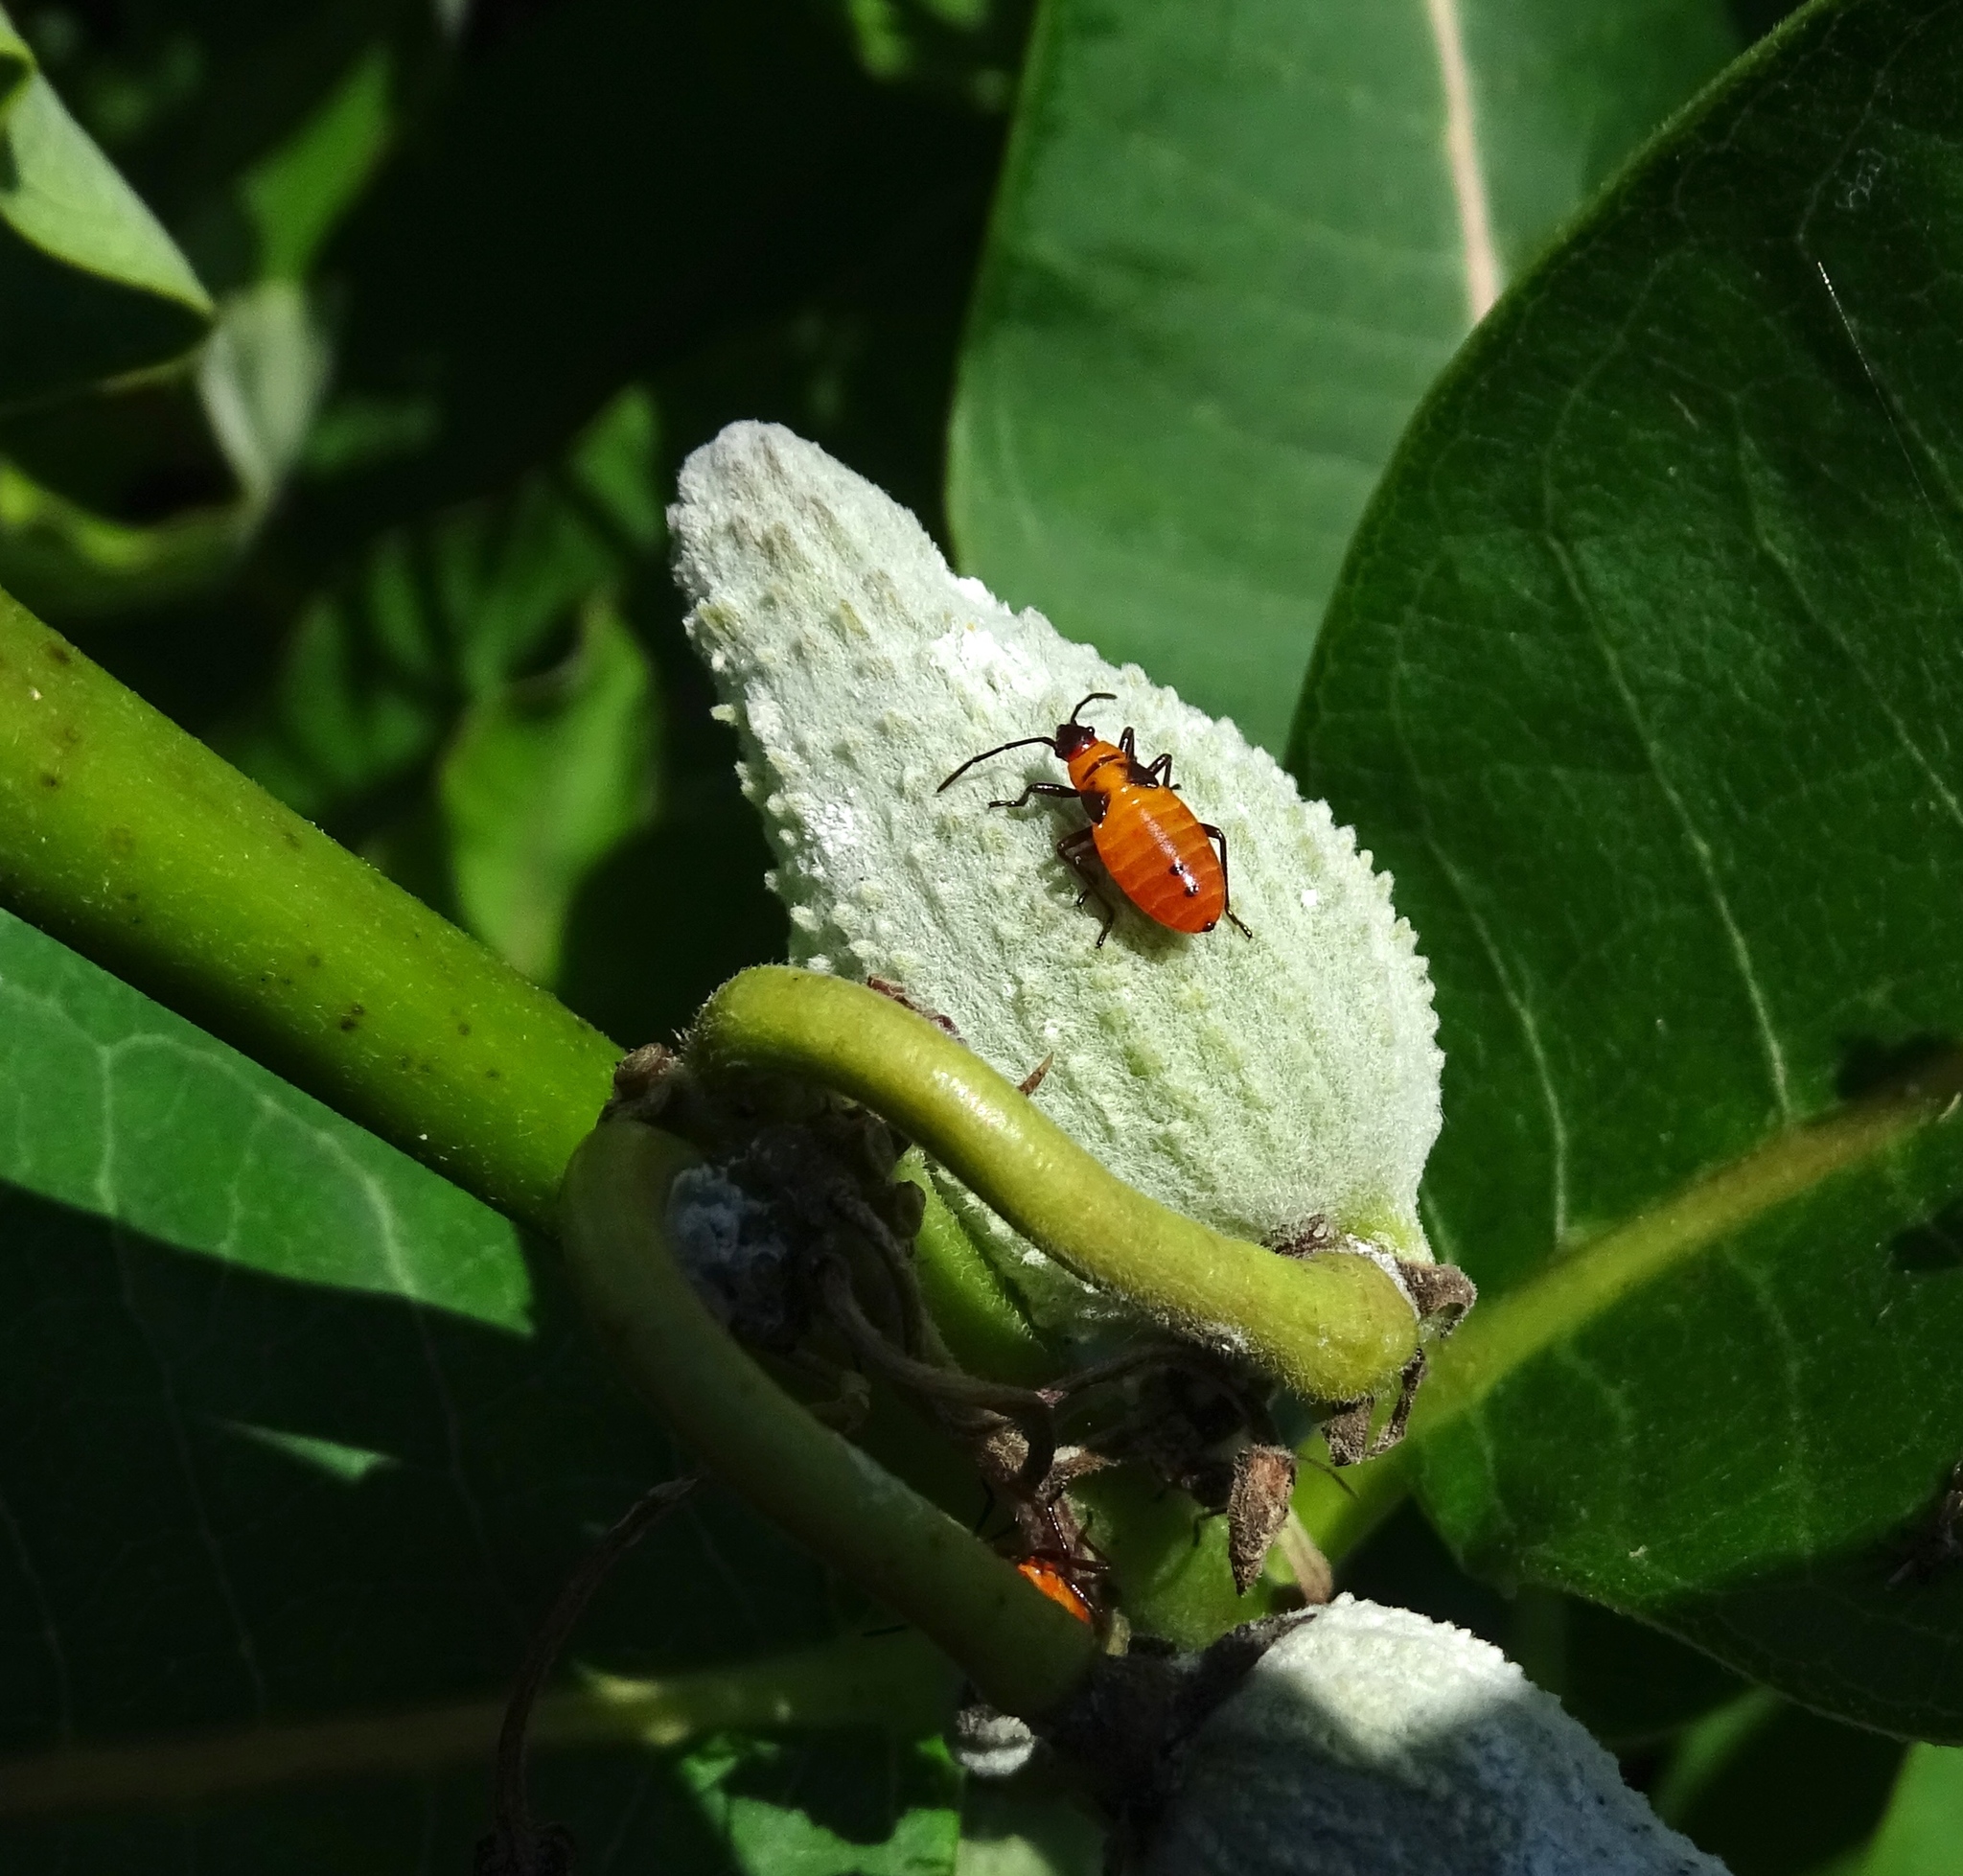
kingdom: Animalia
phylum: Arthropoda
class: Insecta
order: Hemiptera
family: Lygaeidae
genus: Oncopeltus
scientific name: Oncopeltus fasciatus
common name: Large milkweed bug
